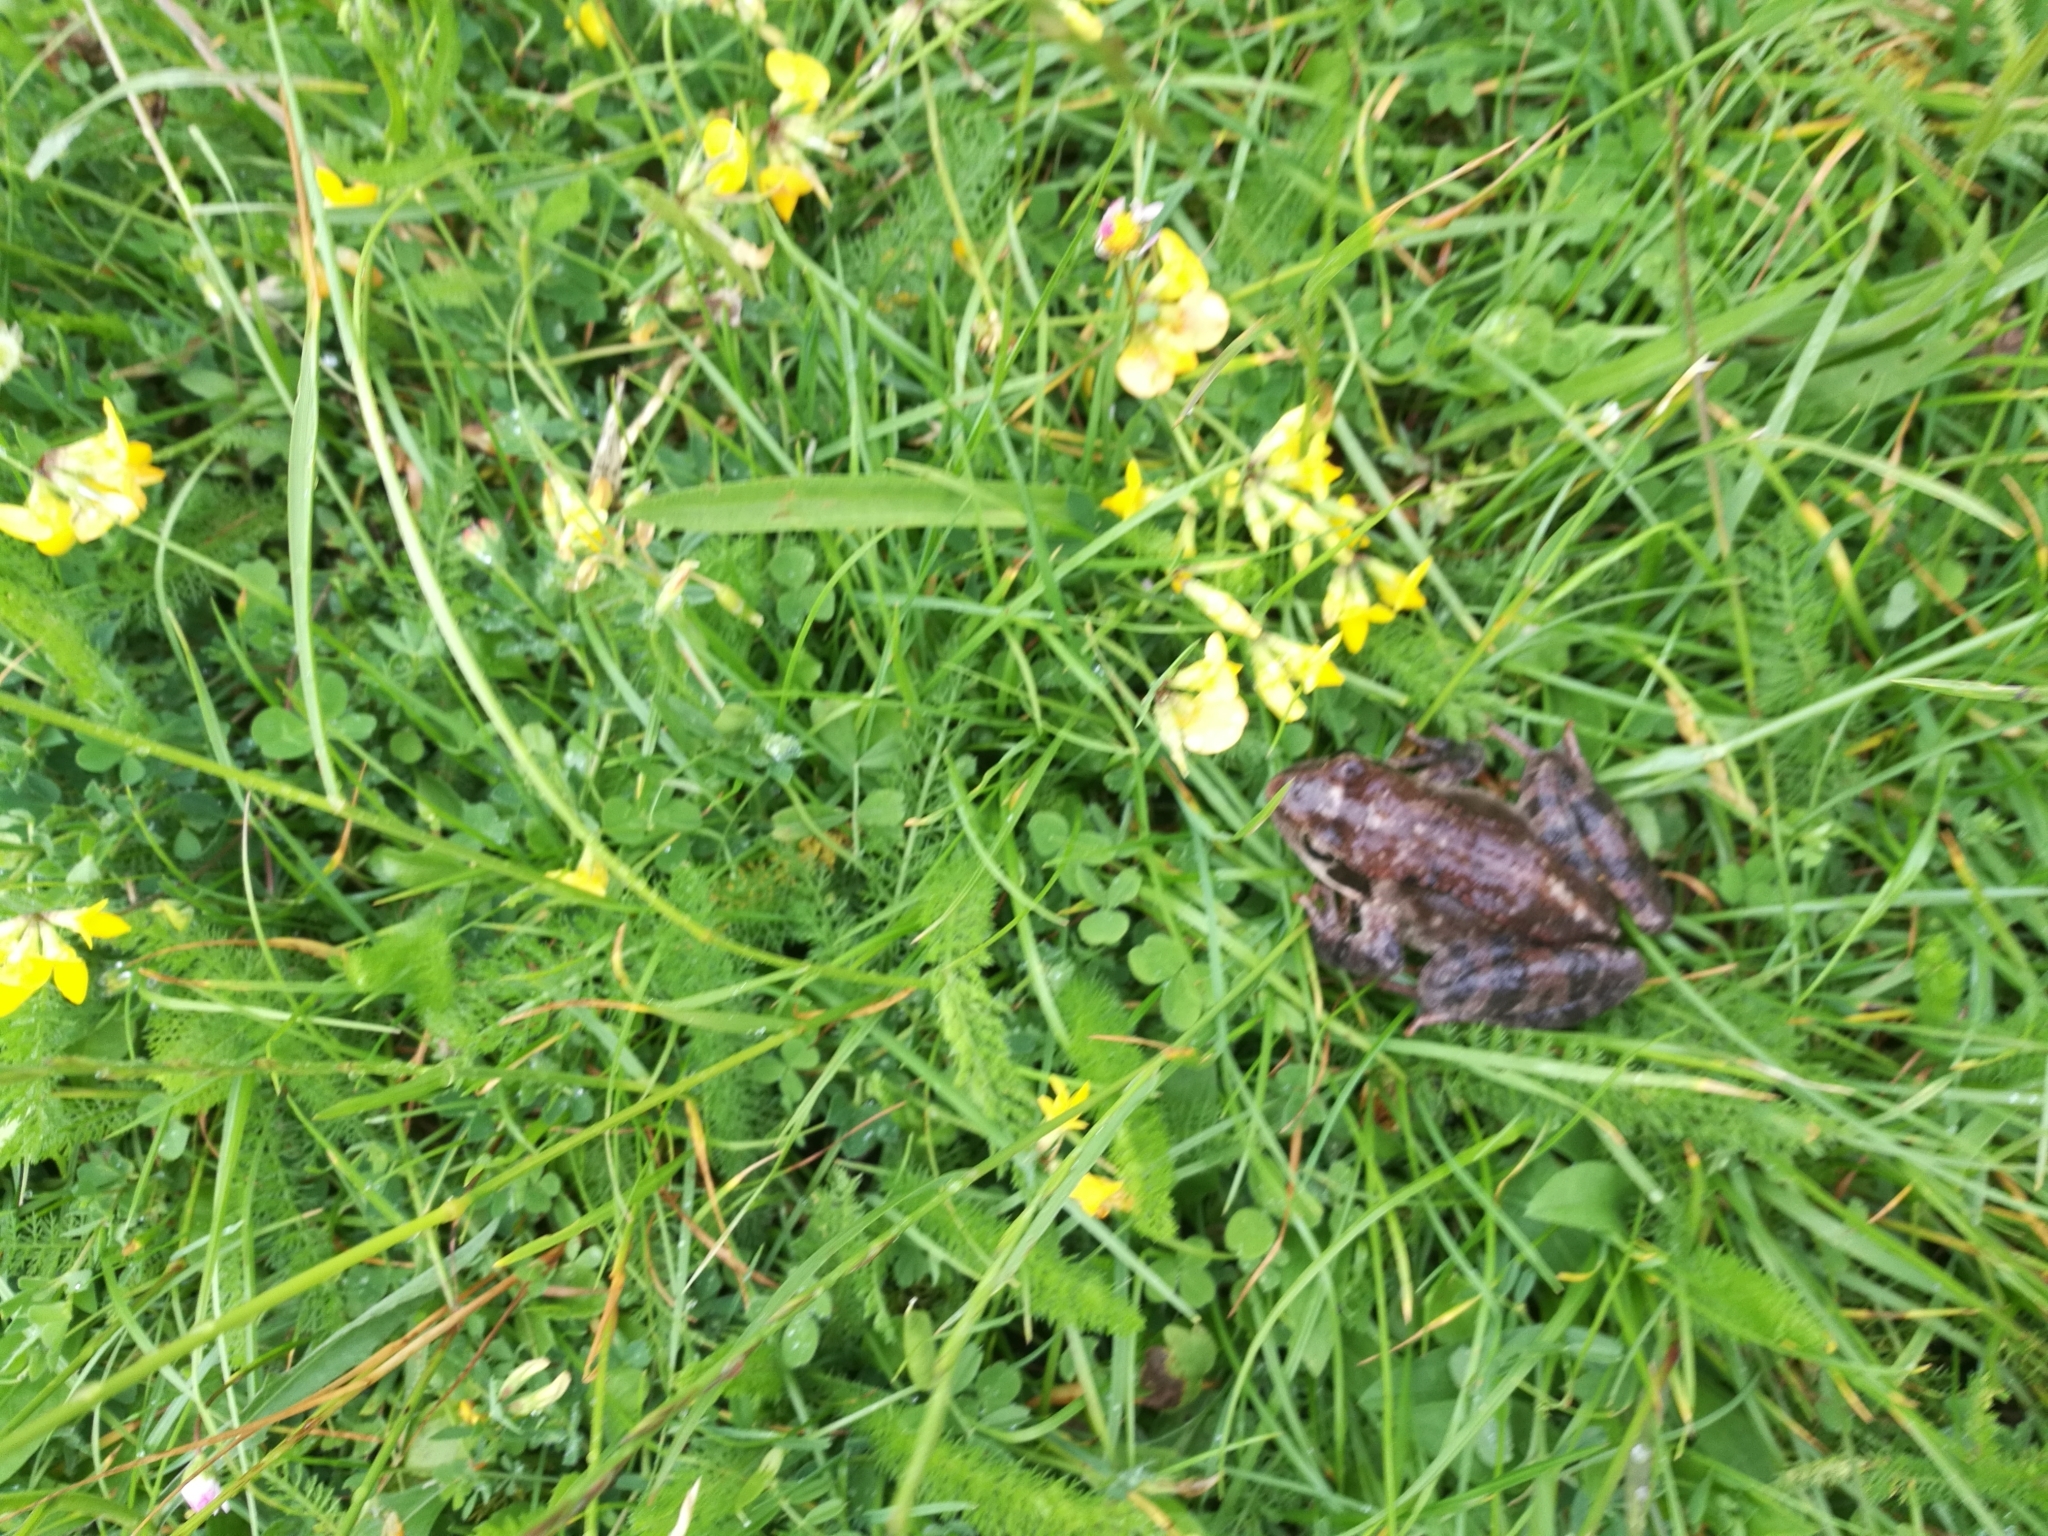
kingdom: Animalia
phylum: Chordata
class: Amphibia
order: Anura
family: Ranidae
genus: Rana
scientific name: Rana temporaria
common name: Common frog
